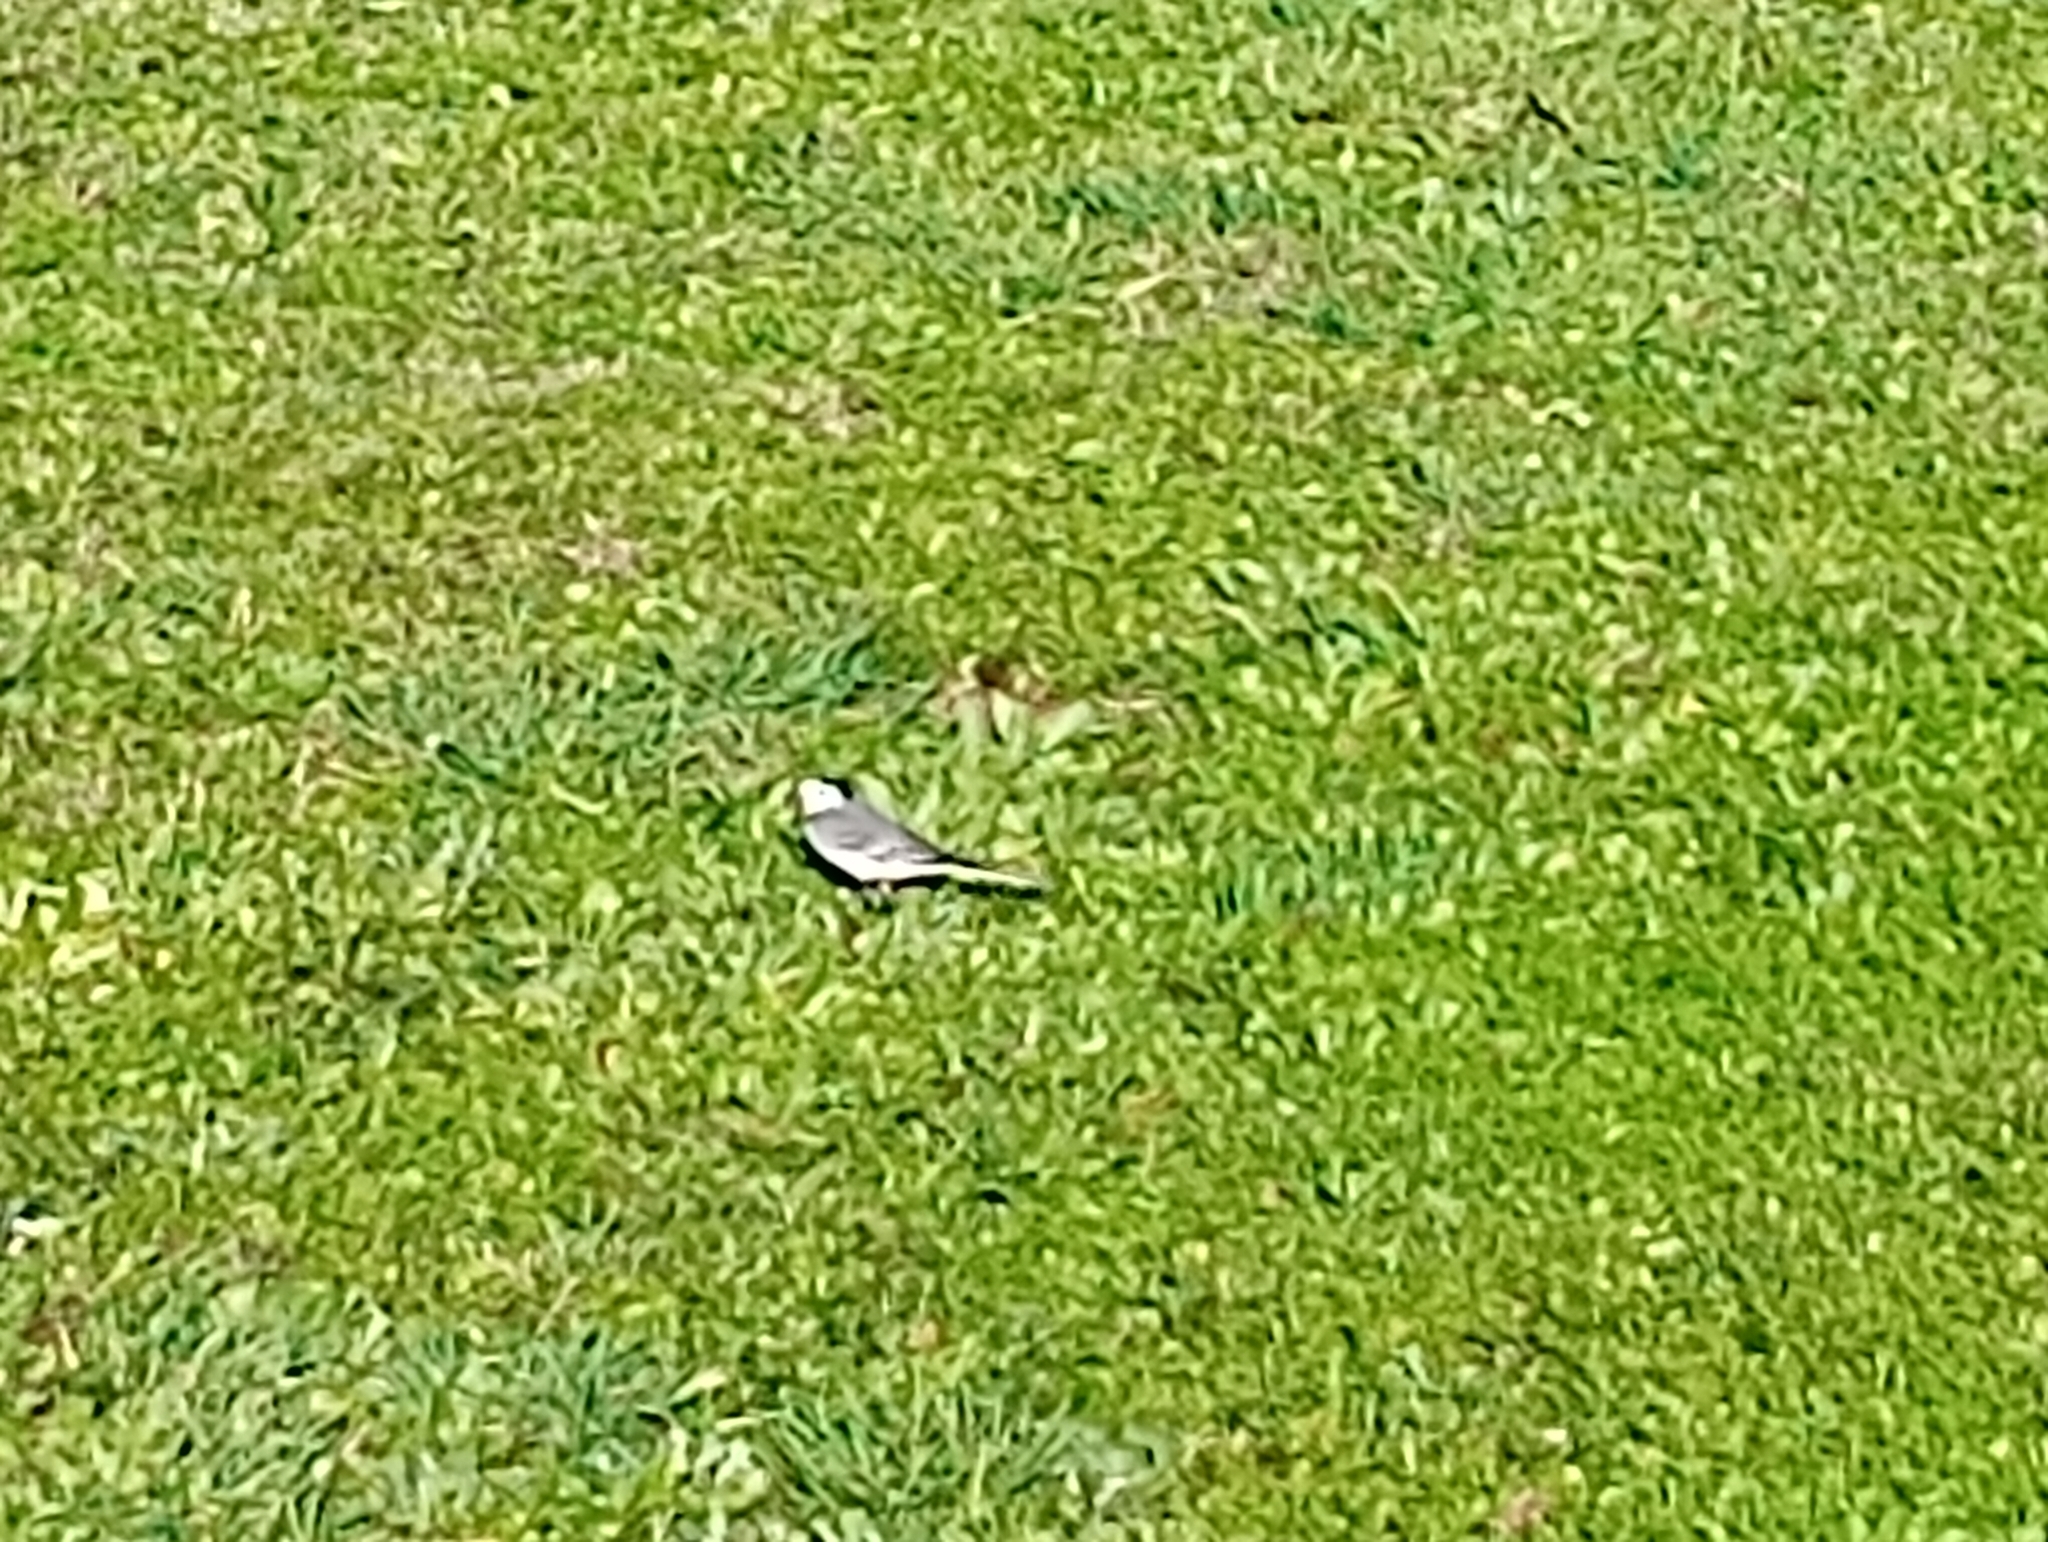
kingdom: Animalia
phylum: Chordata
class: Aves
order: Passeriformes
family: Motacillidae
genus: Motacilla
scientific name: Motacilla alba
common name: White wagtail
